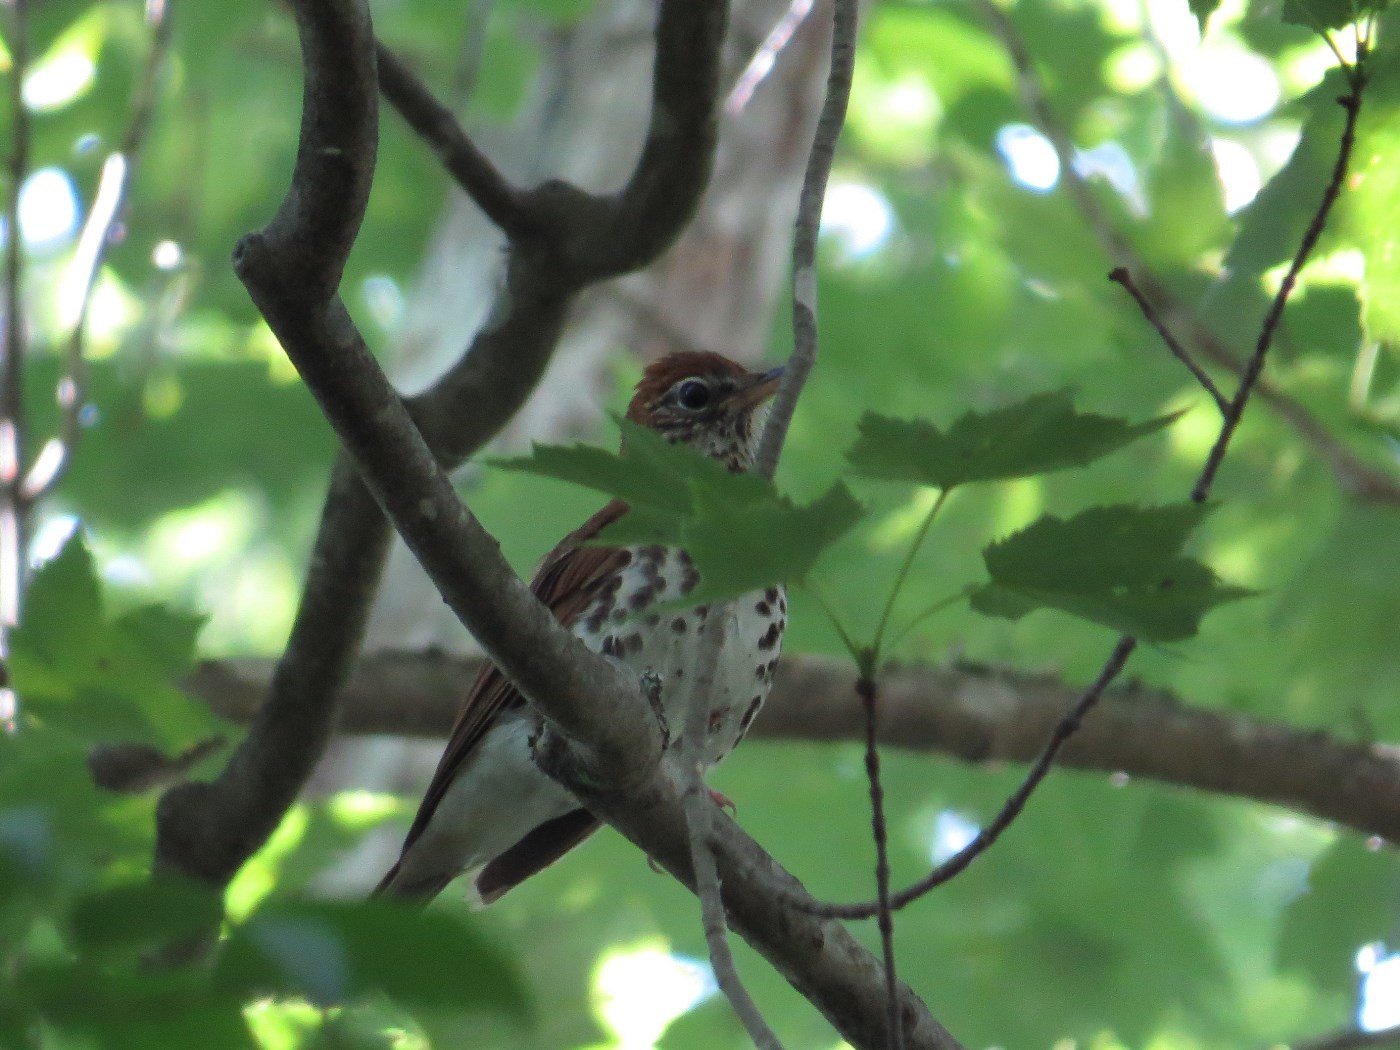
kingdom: Animalia
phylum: Chordata
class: Aves
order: Passeriformes
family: Turdidae
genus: Hylocichla
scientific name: Hylocichla mustelina
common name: Wood thrush
